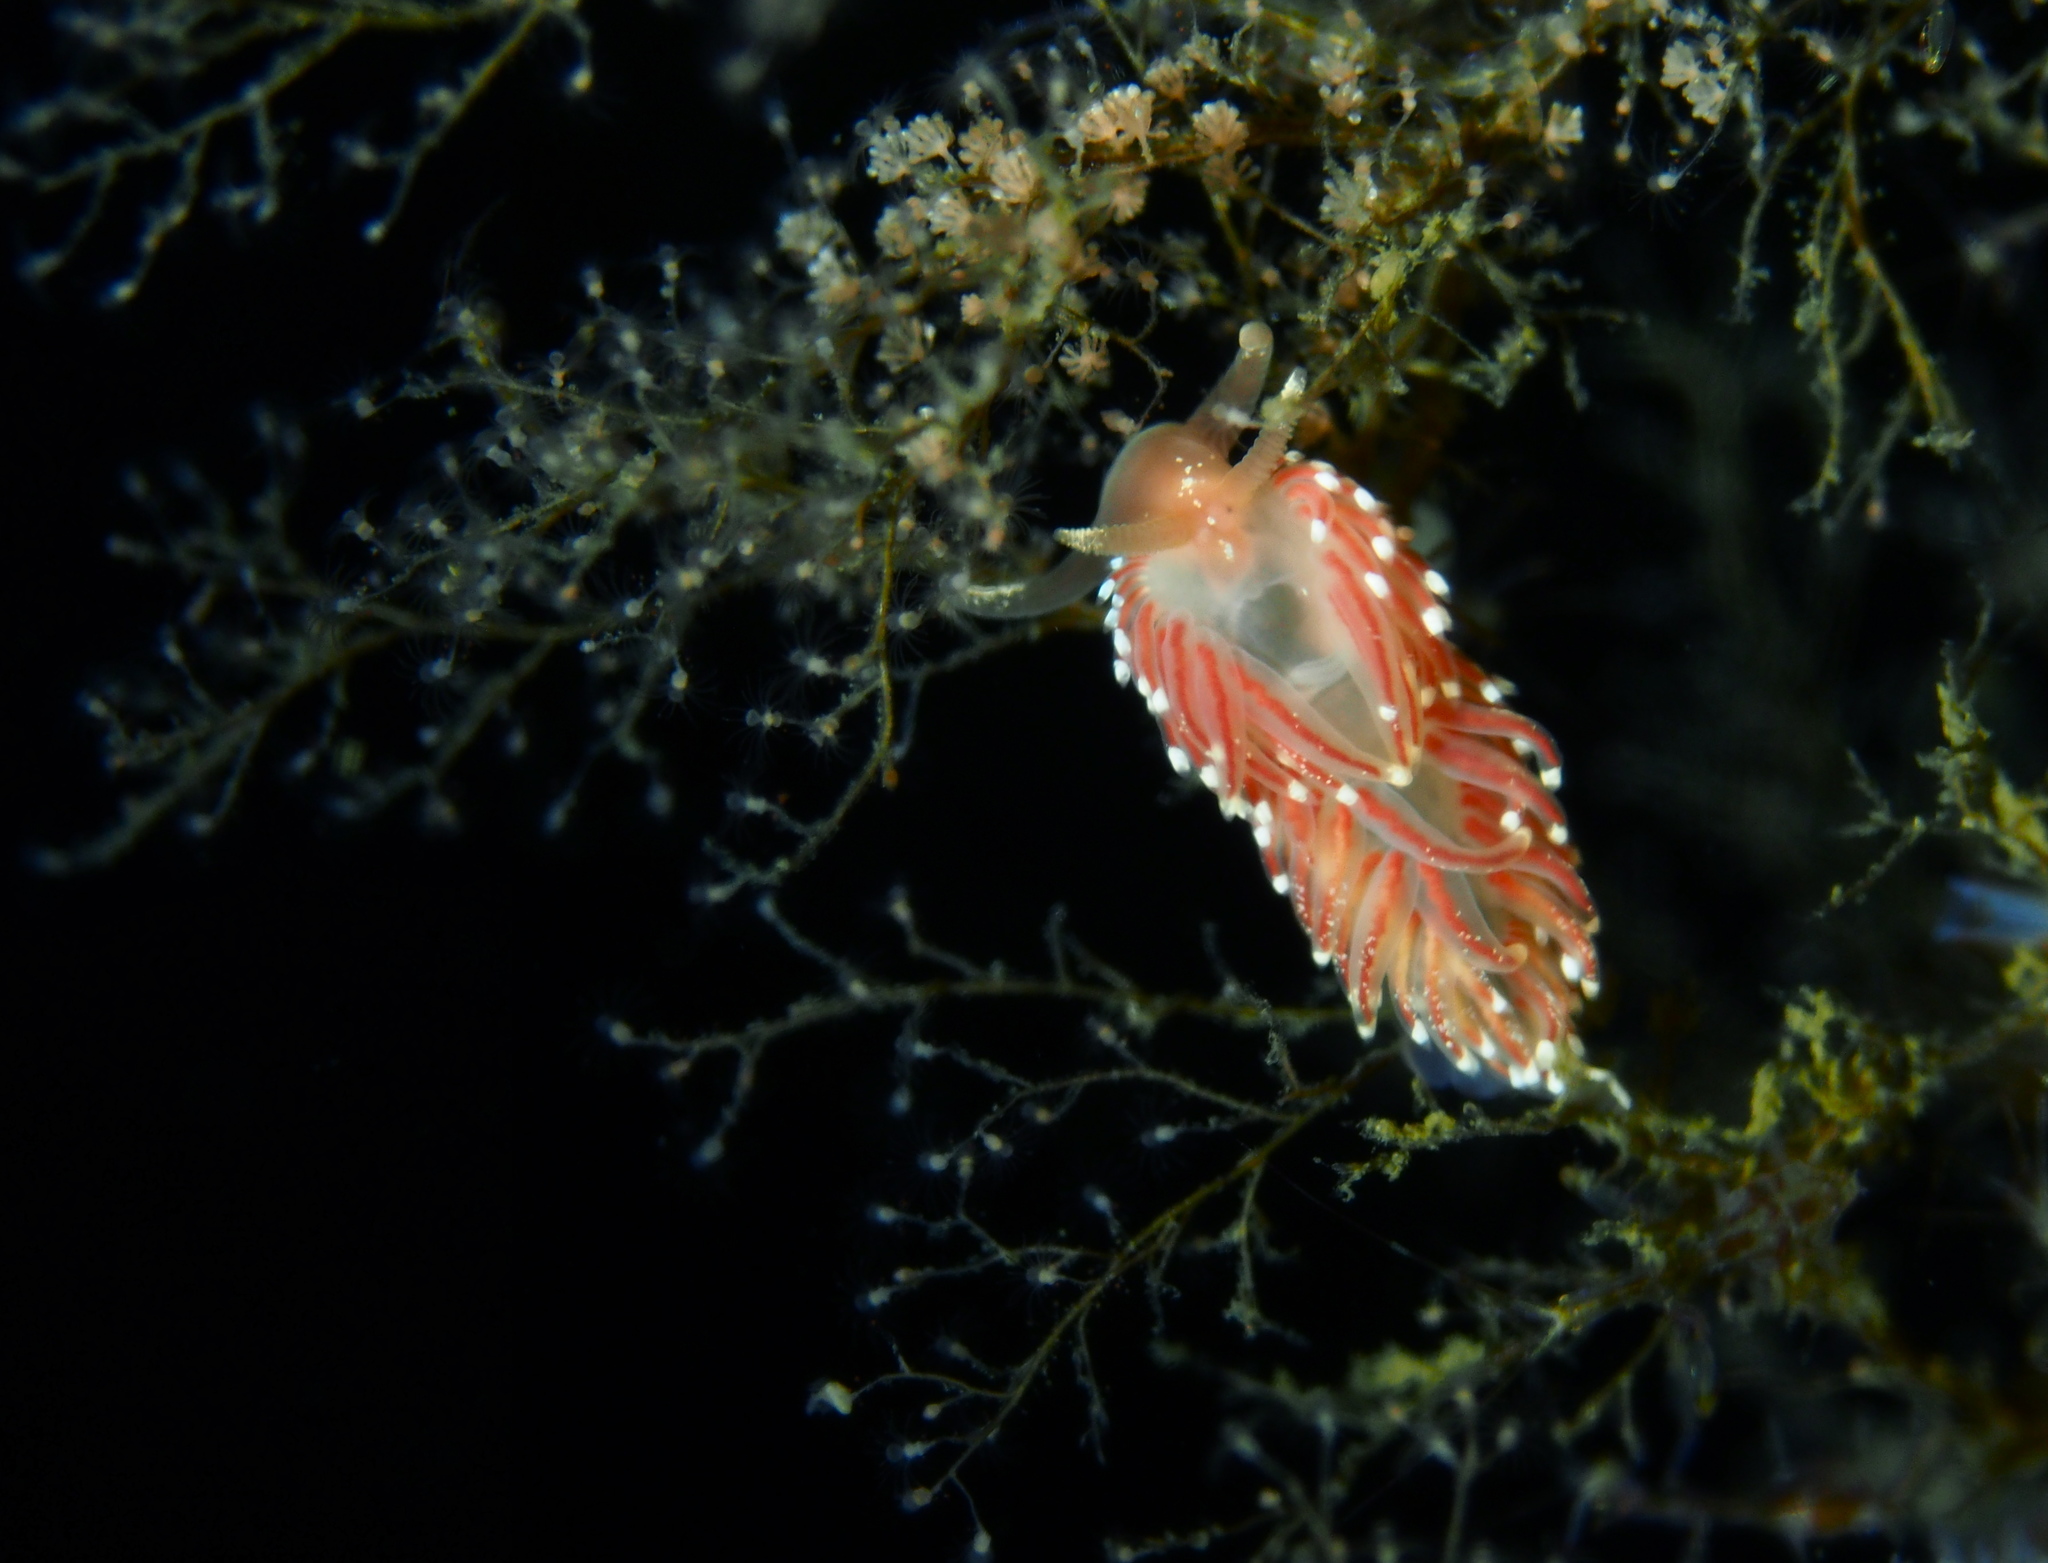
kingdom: Animalia
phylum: Mollusca
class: Gastropoda
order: Nudibranchia
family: Facelinidae
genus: Facelina
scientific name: Facelina bostoniensis
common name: Boston facelina
